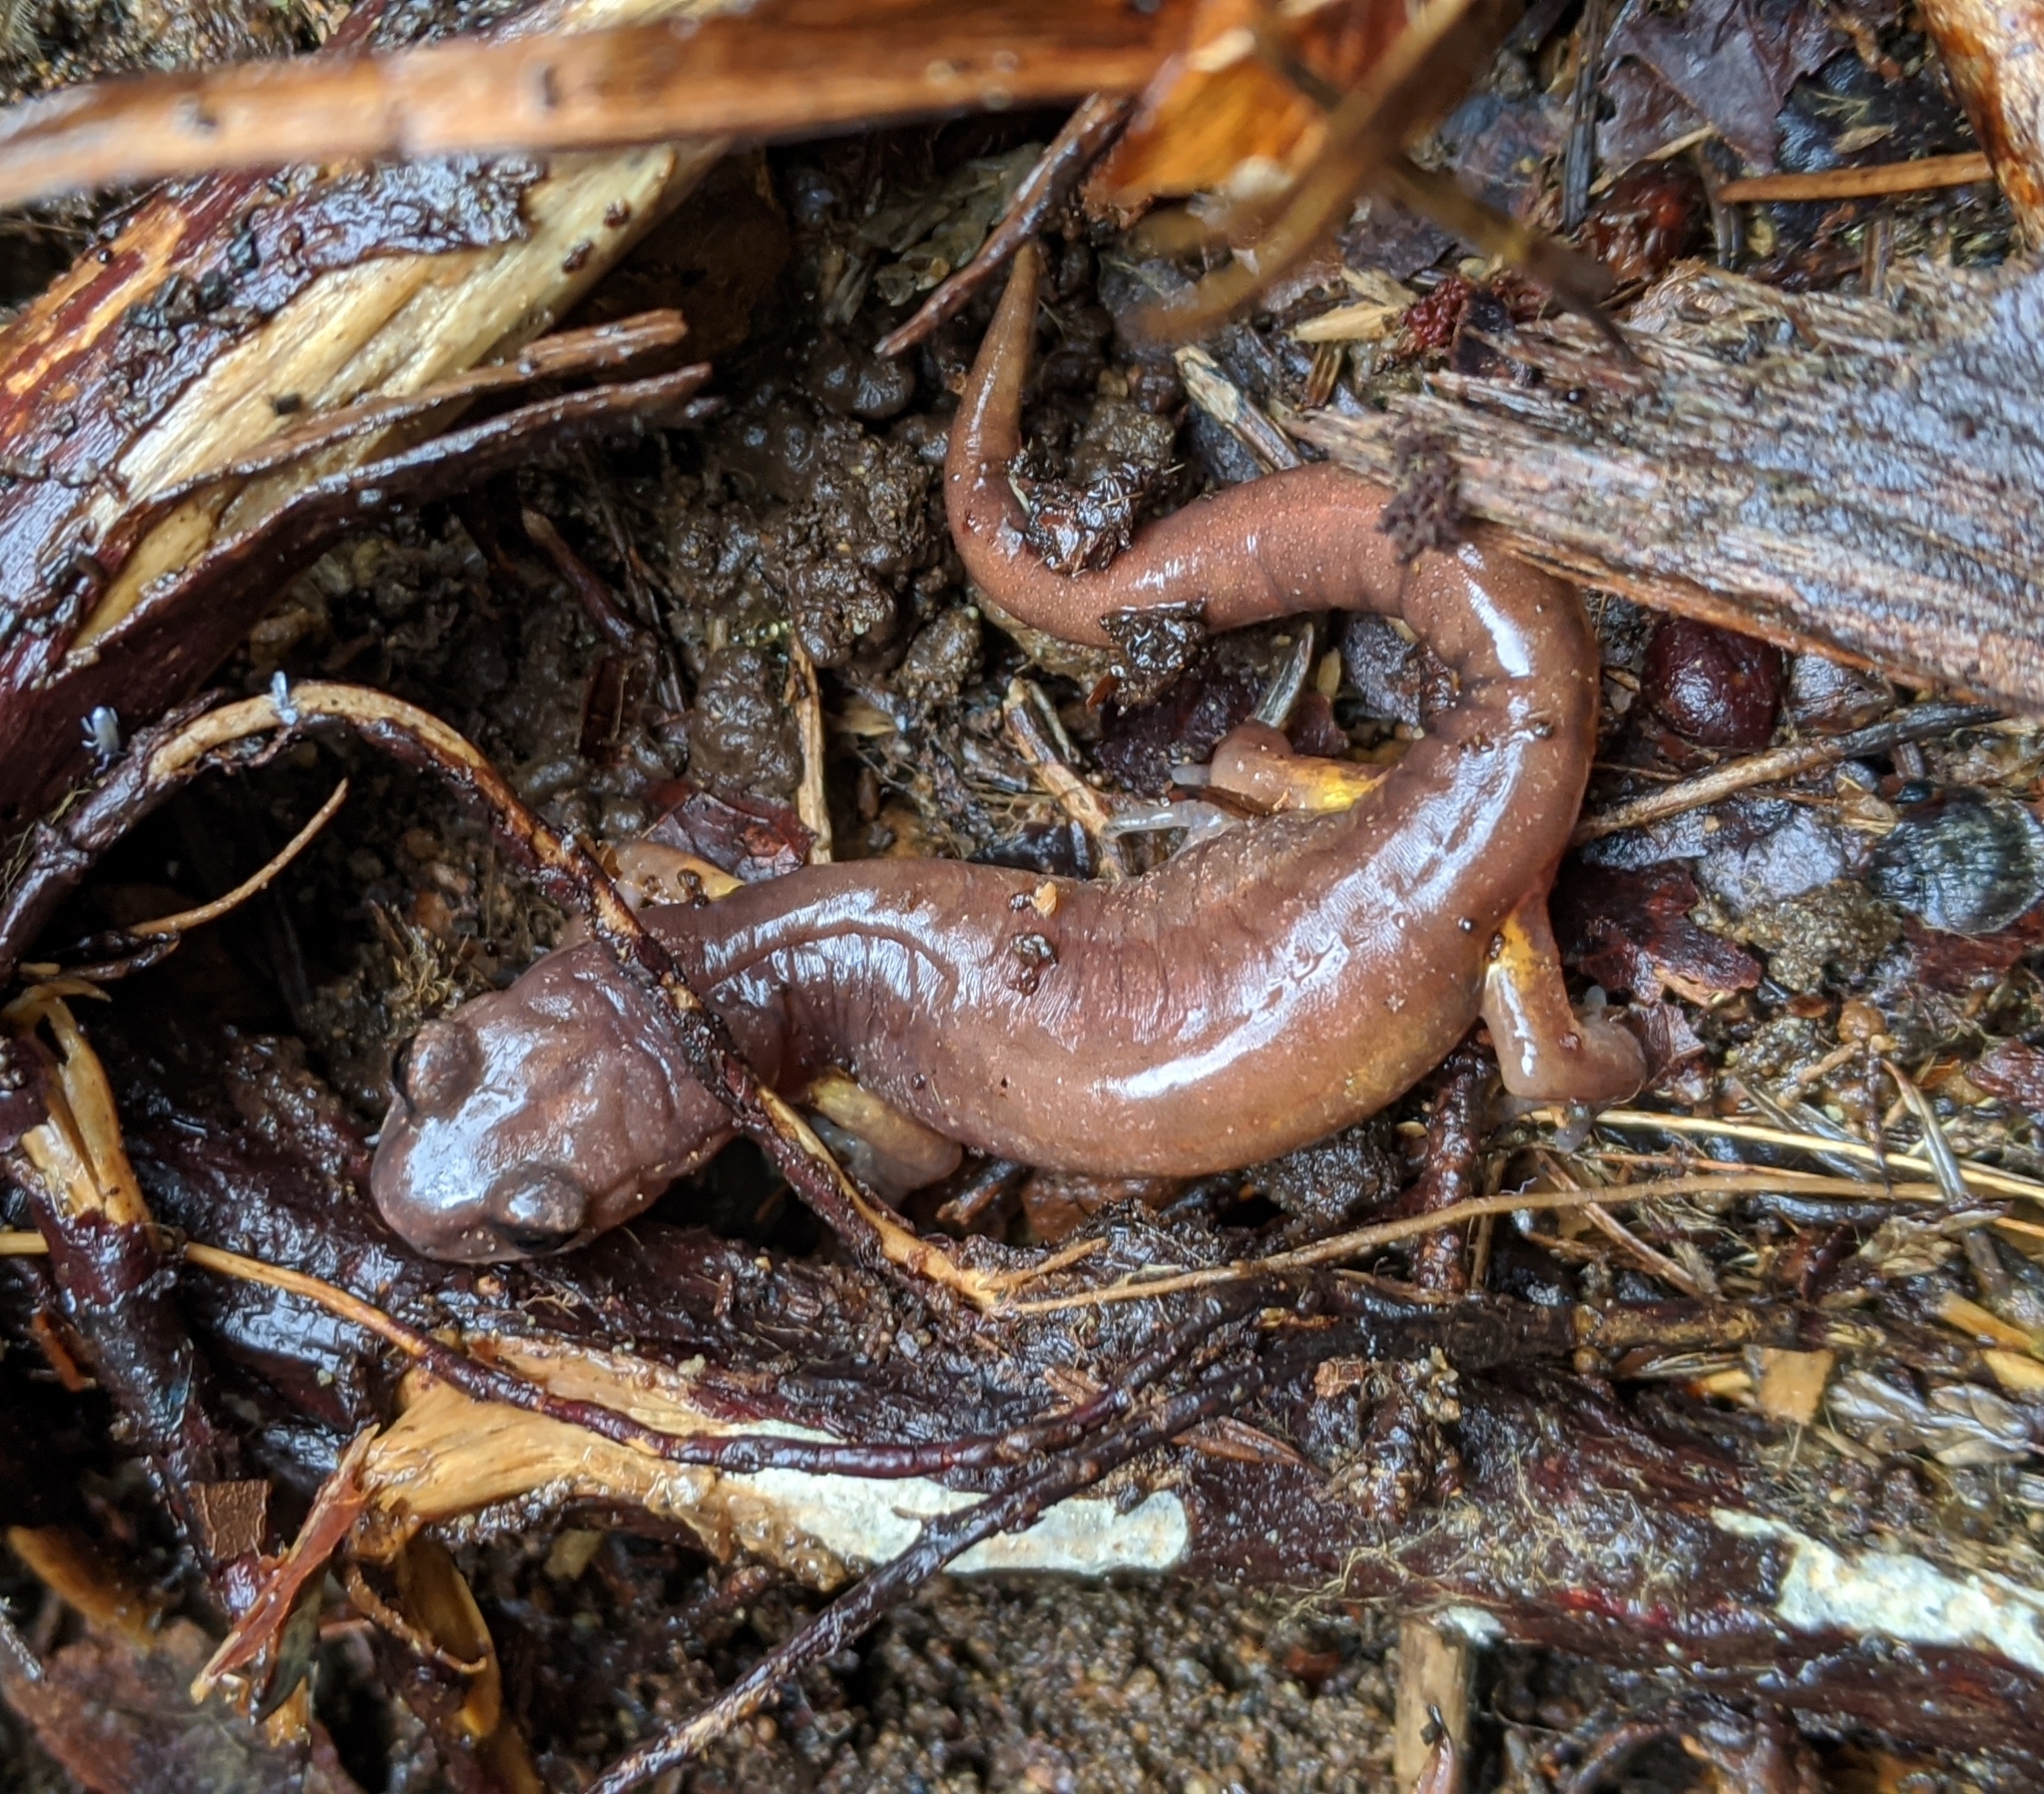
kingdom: Animalia
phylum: Chordata
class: Amphibia
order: Caudata
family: Plethodontidae
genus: Ensatina
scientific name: Ensatina eschscholtzii
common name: Ensatina
